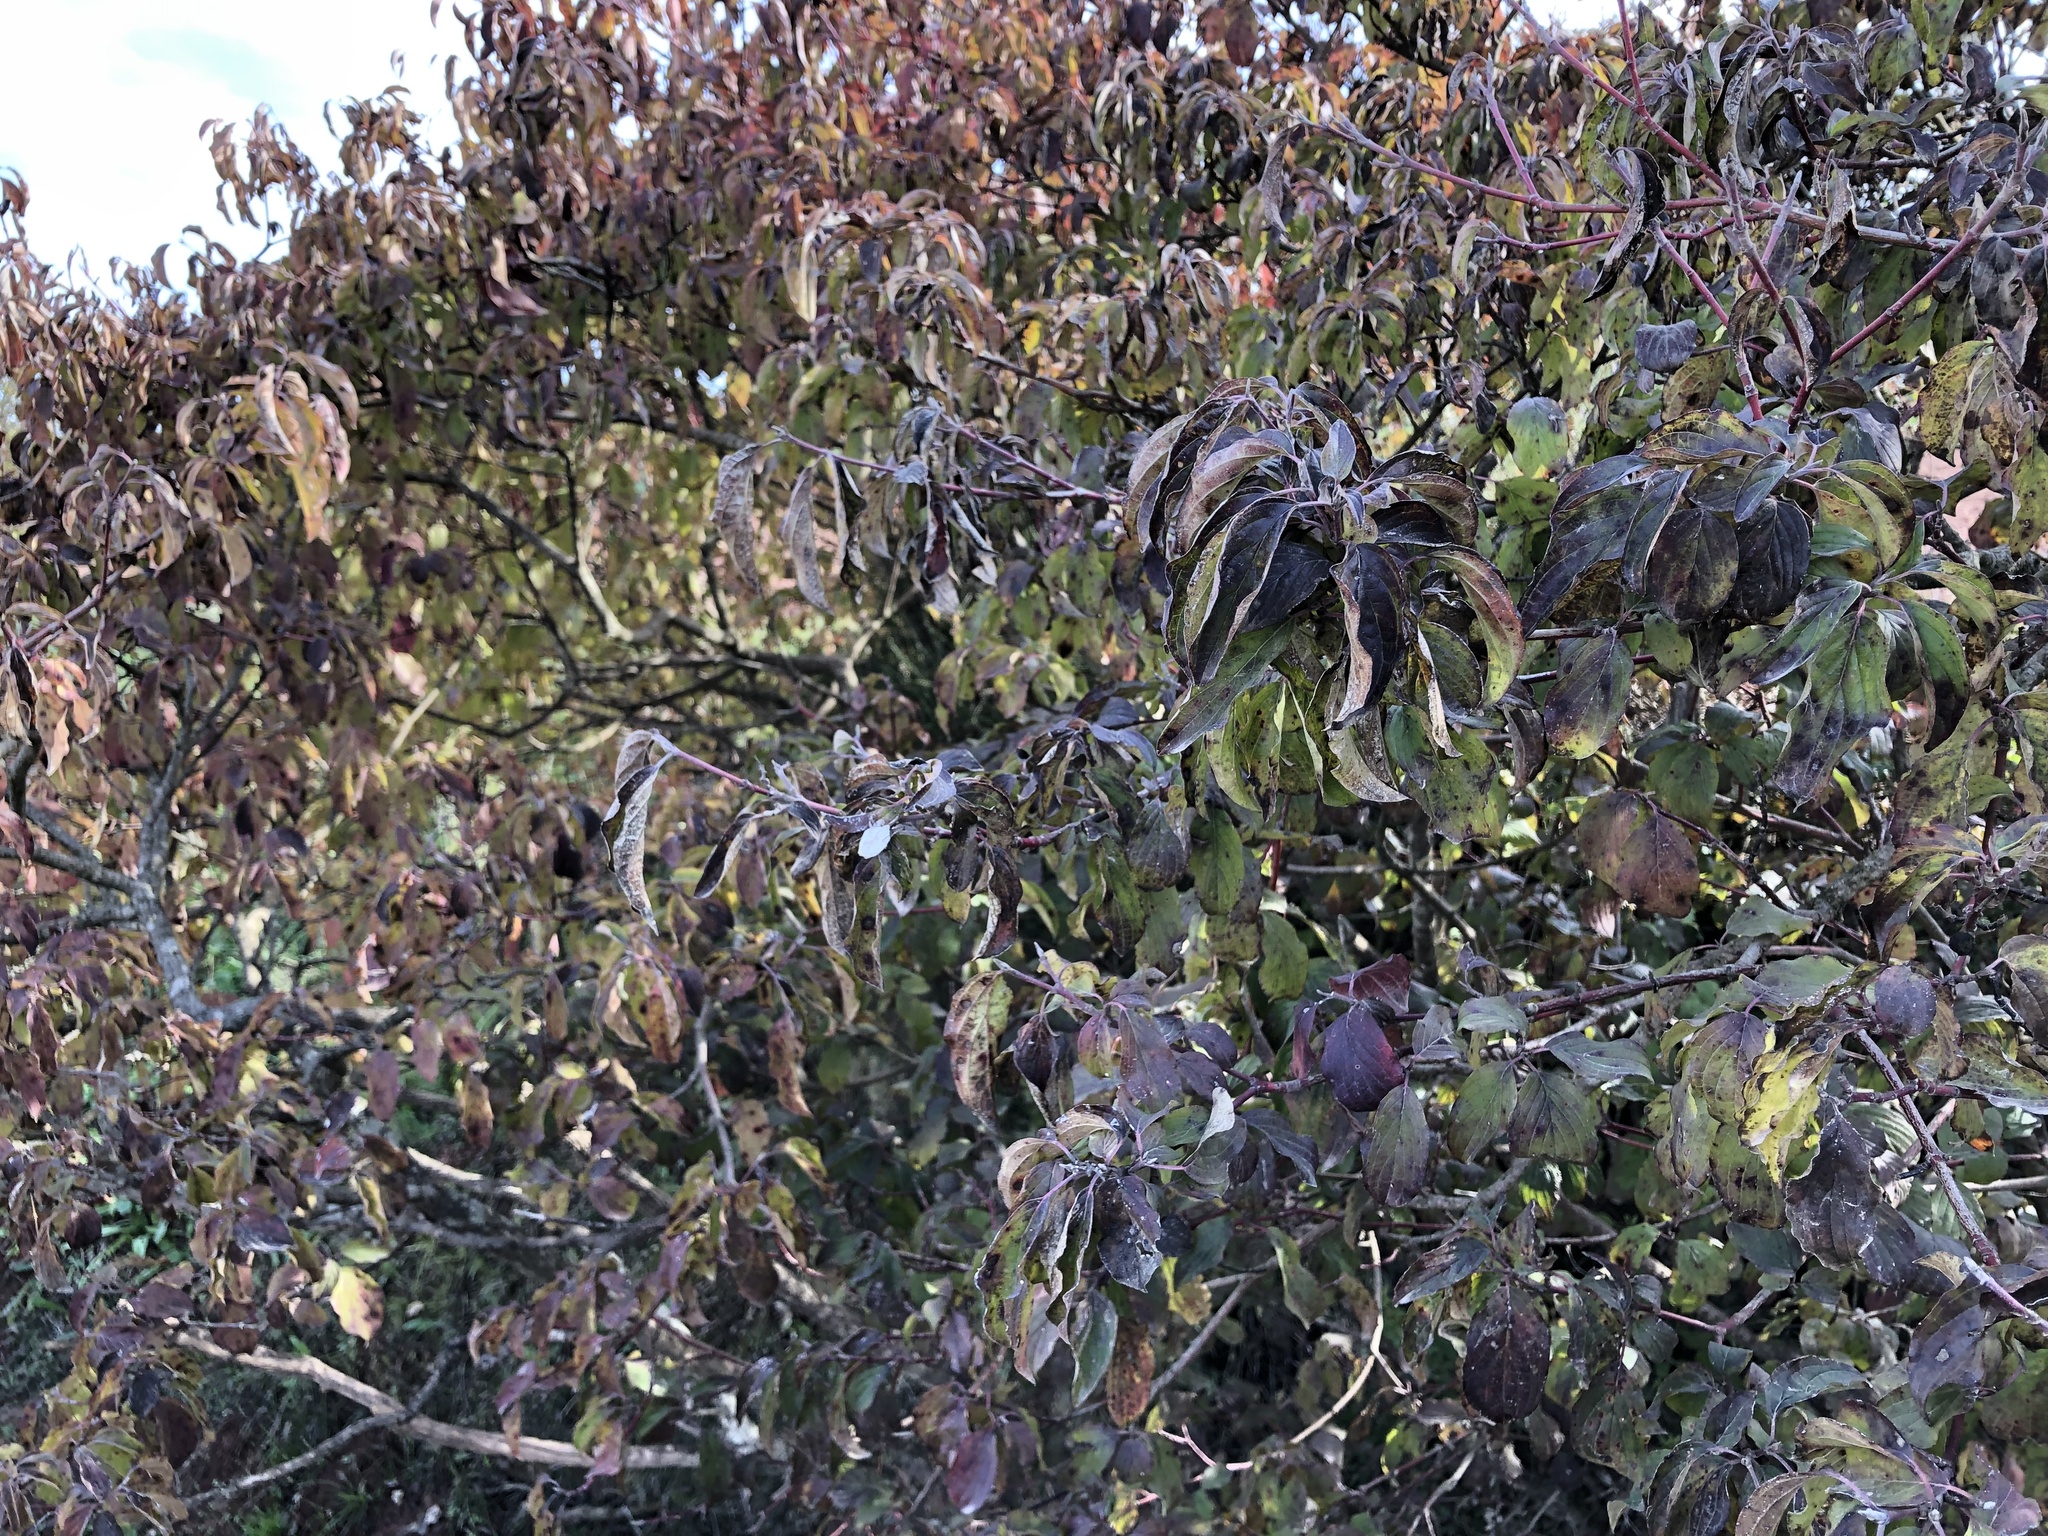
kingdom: Plantae
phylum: Tracheophyta
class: Magnoliopsida
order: Cornales
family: Cornaceae
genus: Cornus
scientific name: Cornus sanguinea
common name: Dogwood
